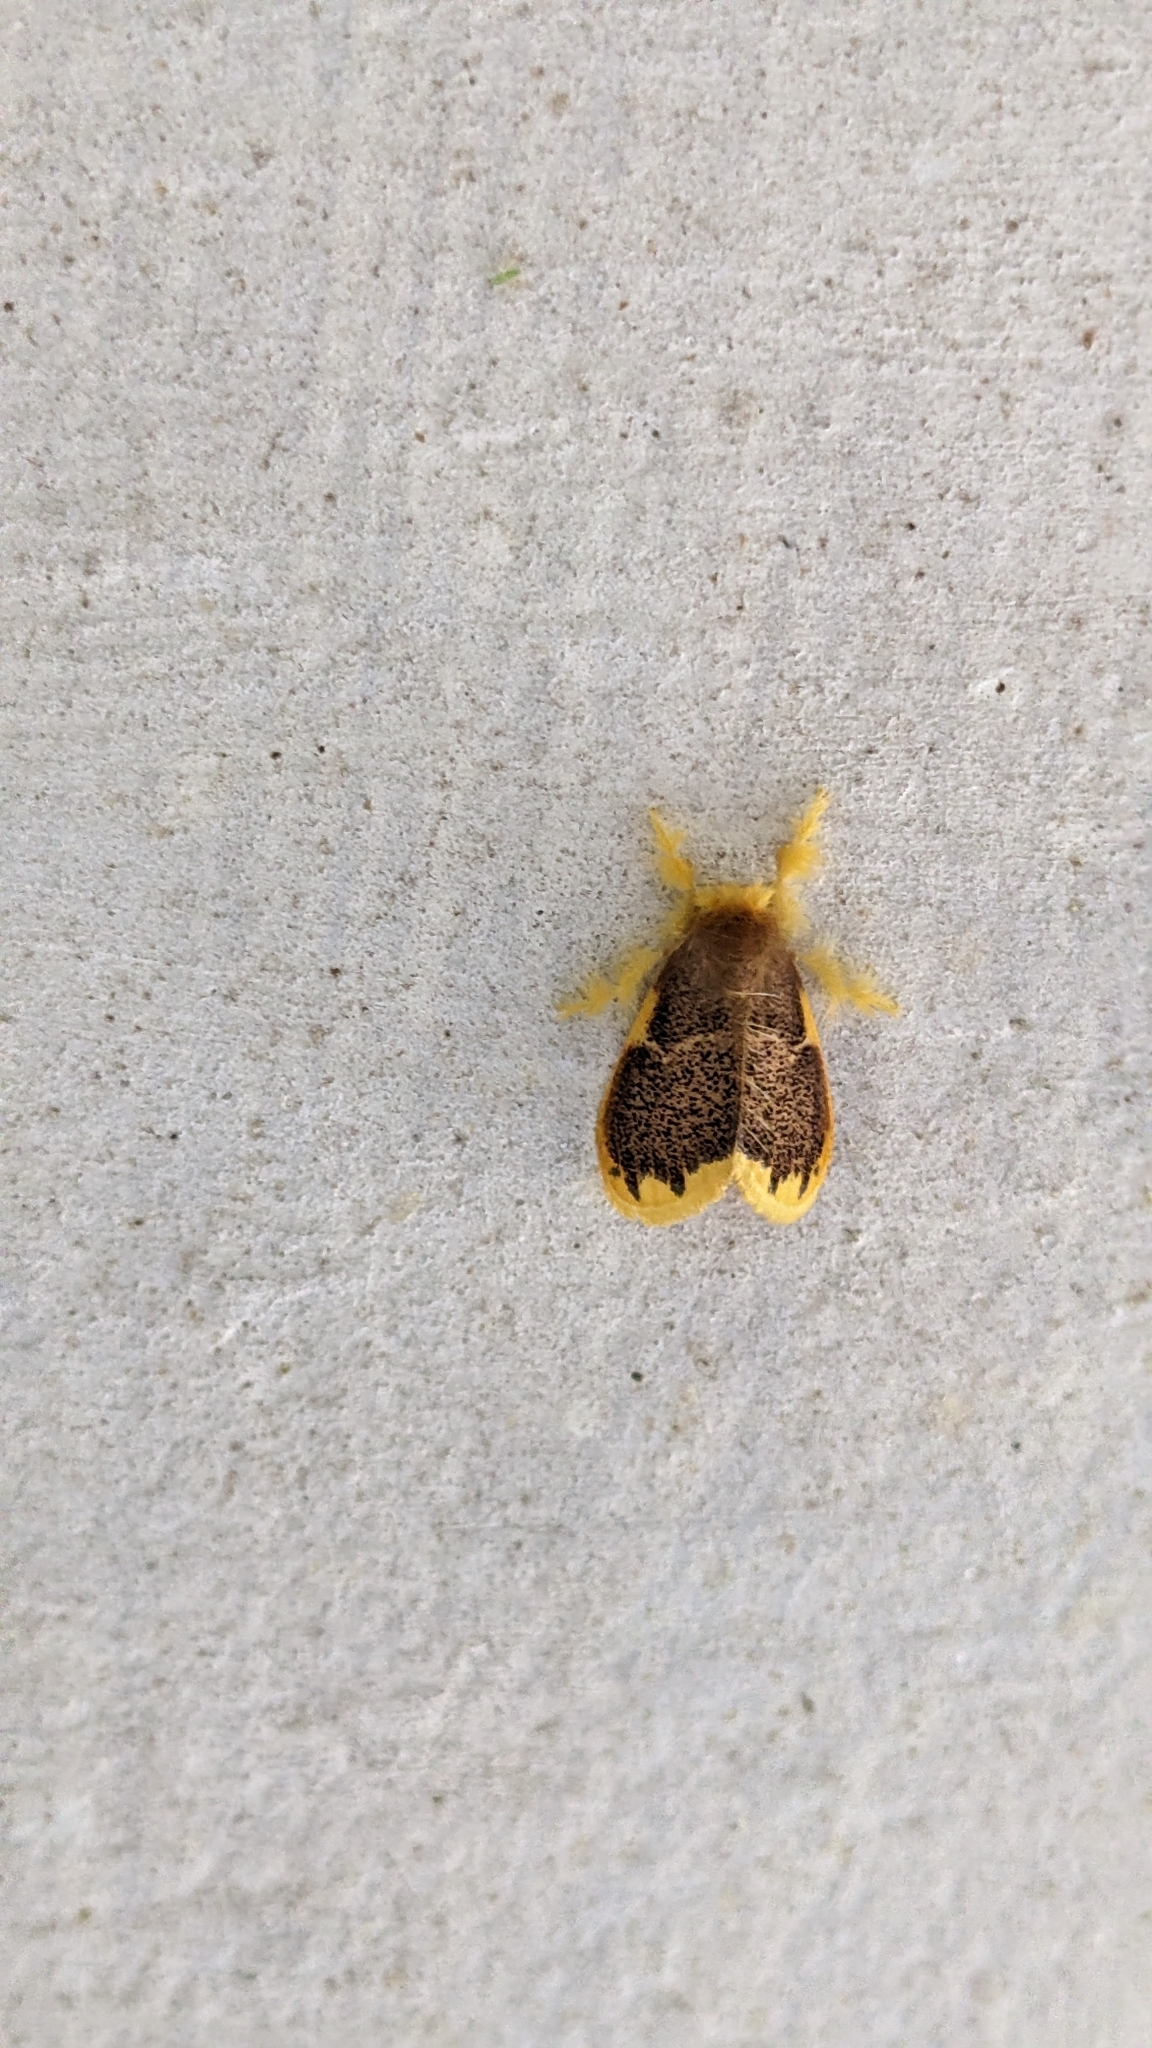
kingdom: Animalia
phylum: Arthropoda
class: Insecta
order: Lepidoptera
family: Erebidae
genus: Somena
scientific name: Somena similis
